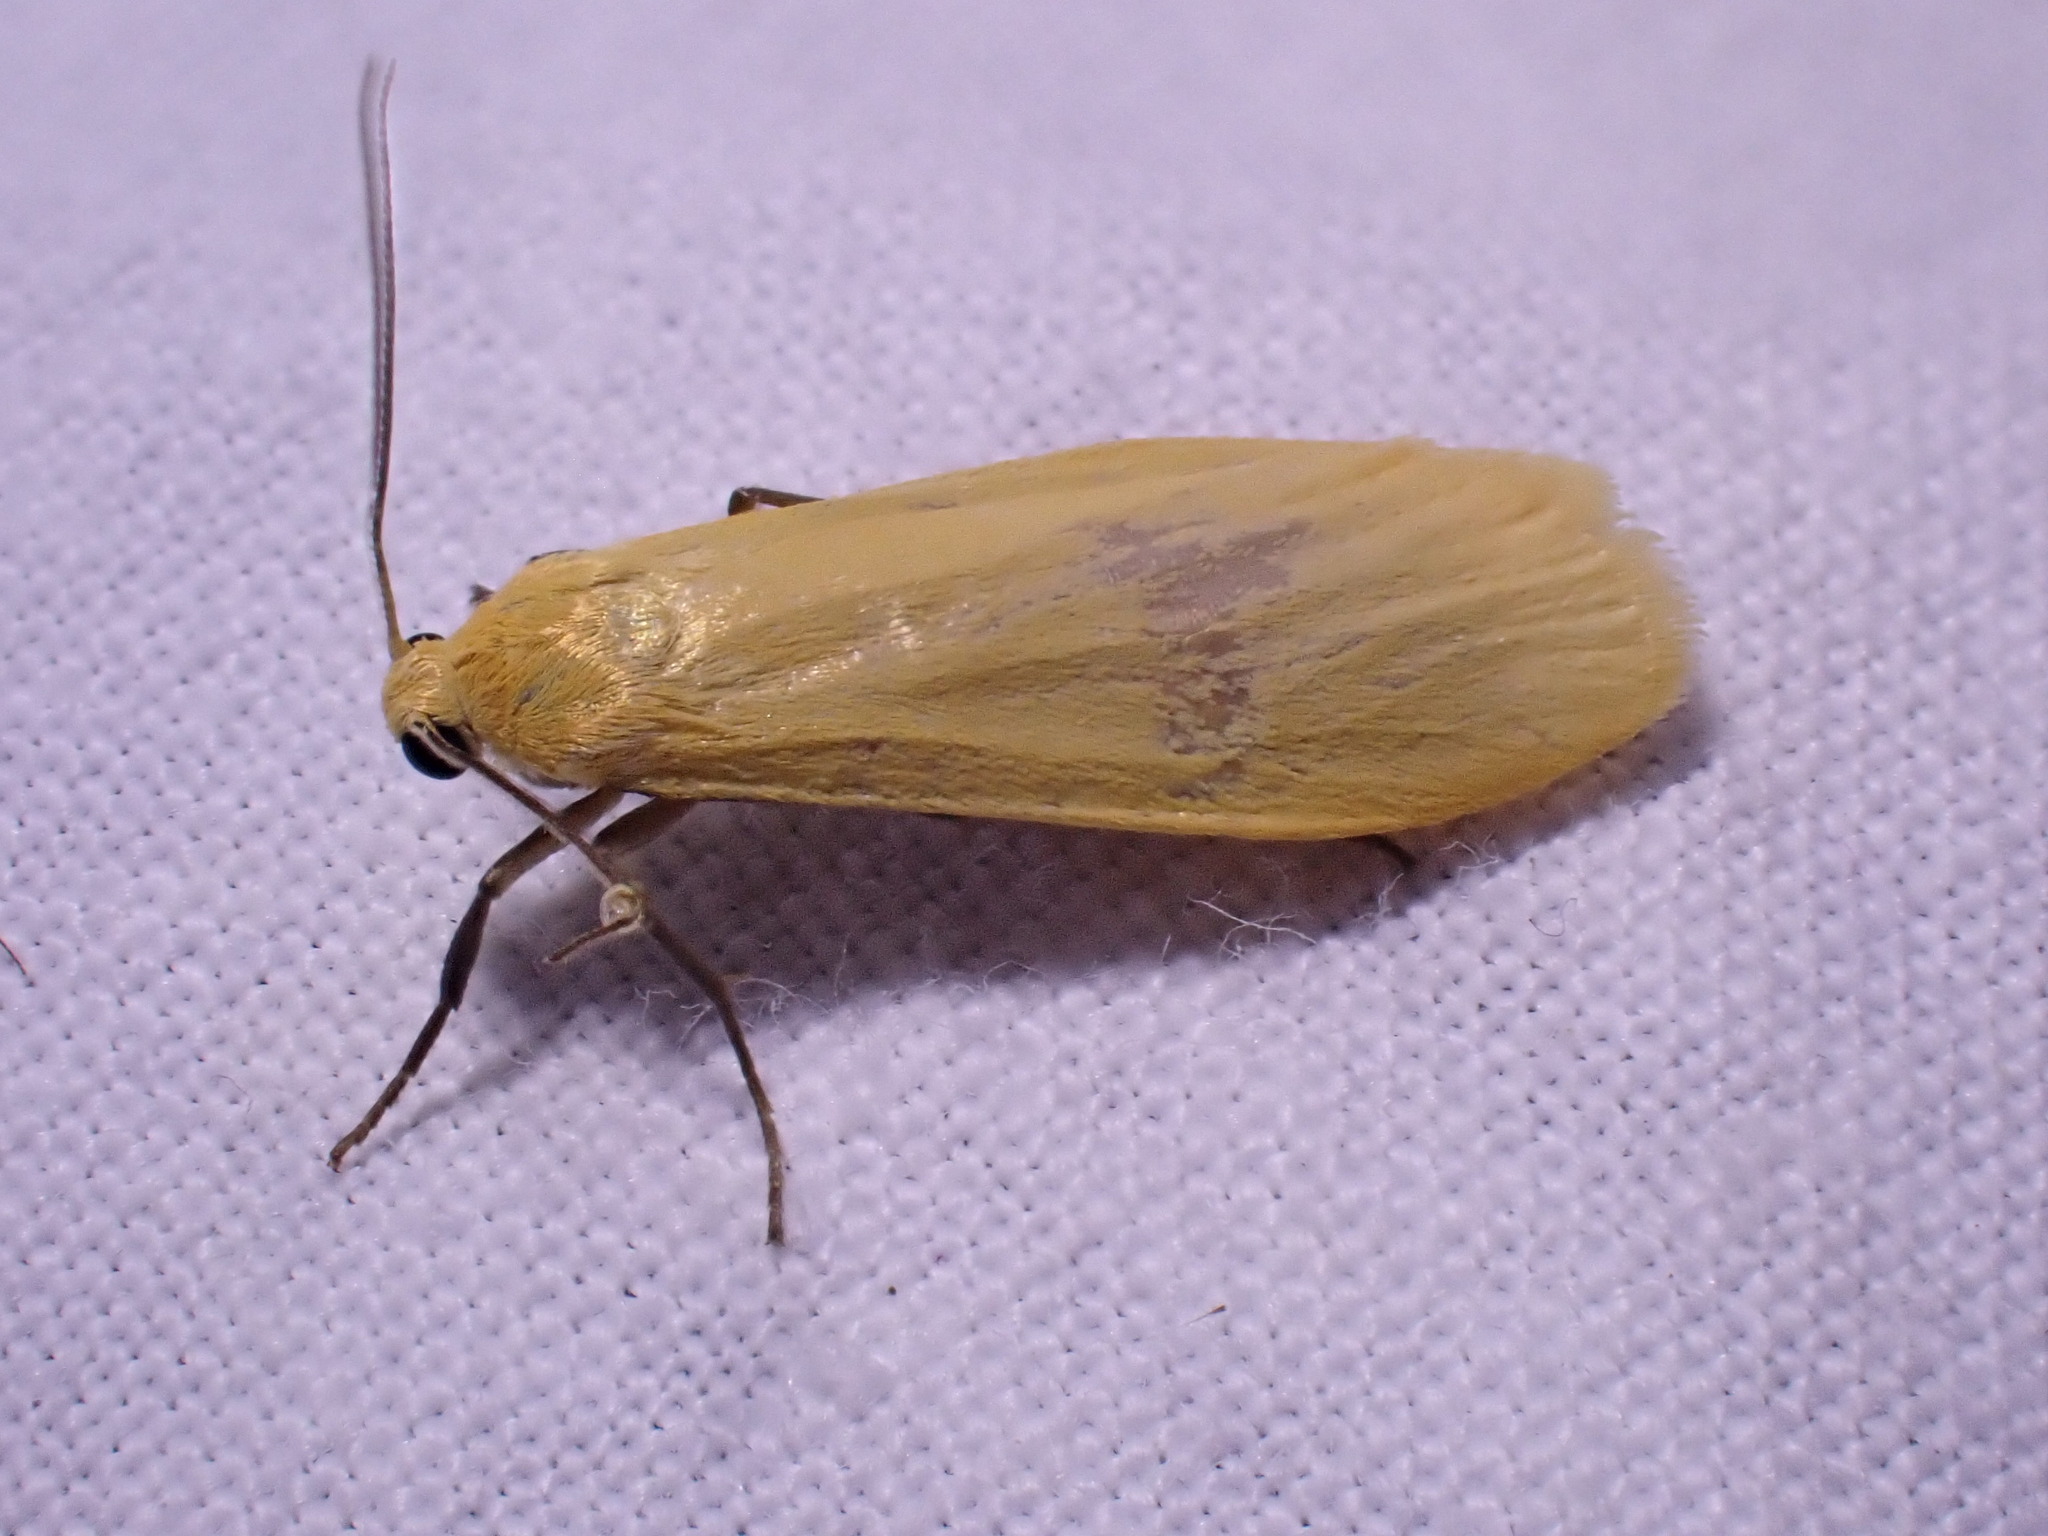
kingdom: Animalia
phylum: Arthropoda
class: Insecta
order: Lepidoptera
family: Erebidae
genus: Wittia
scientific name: Wittia sororcula
